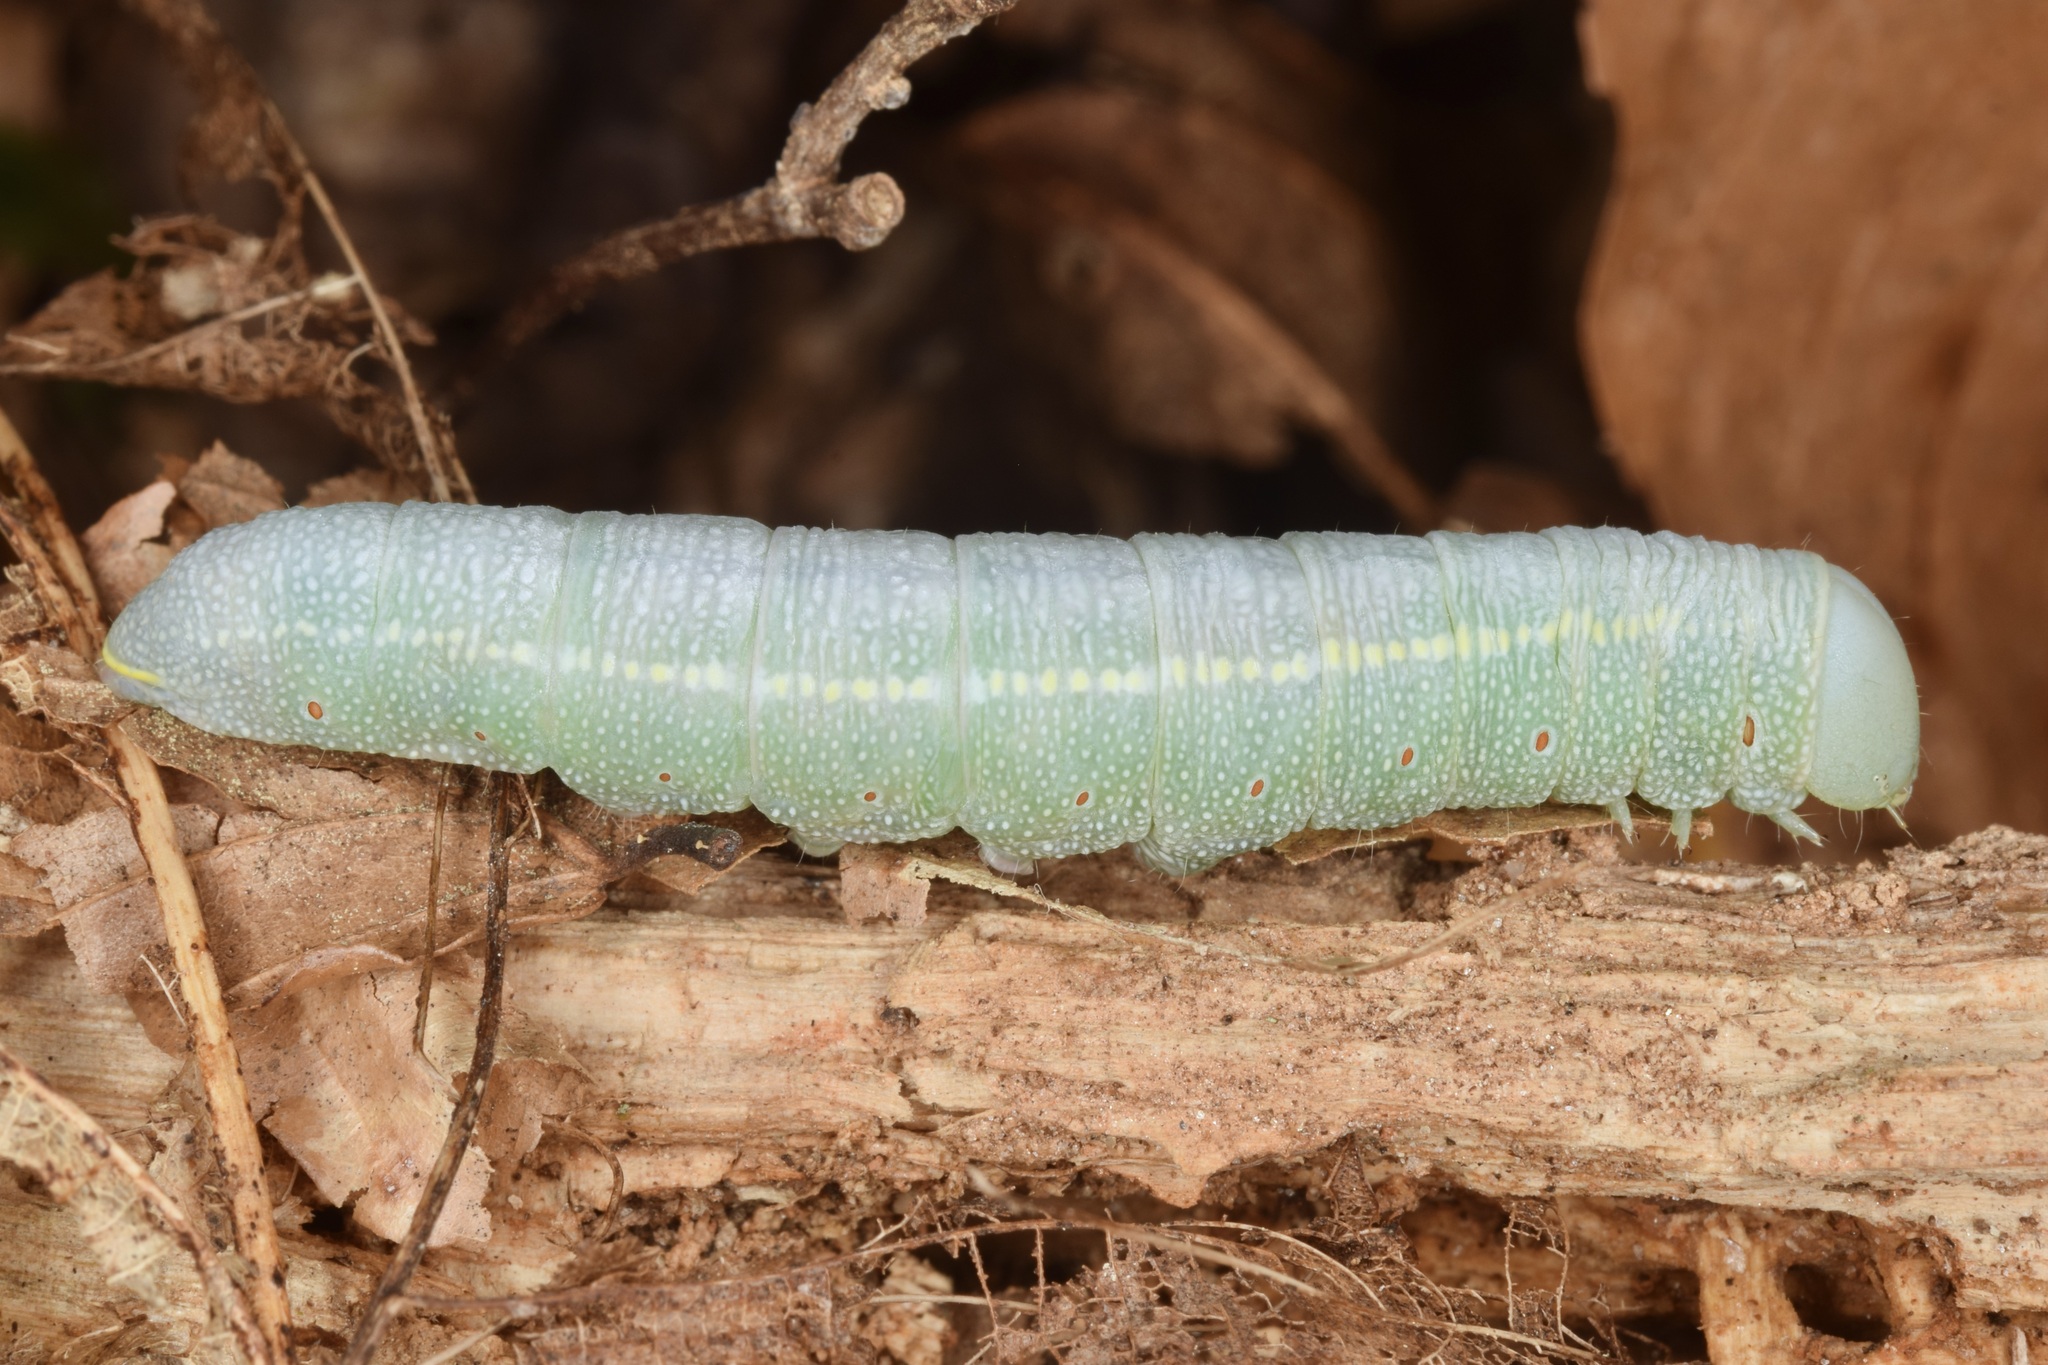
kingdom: Animalia
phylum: Arthropoda
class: Insecta
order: Lepidoptera
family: Notodontidae
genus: Nadata
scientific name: Nadata gibbosa
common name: White-dotted prominent
